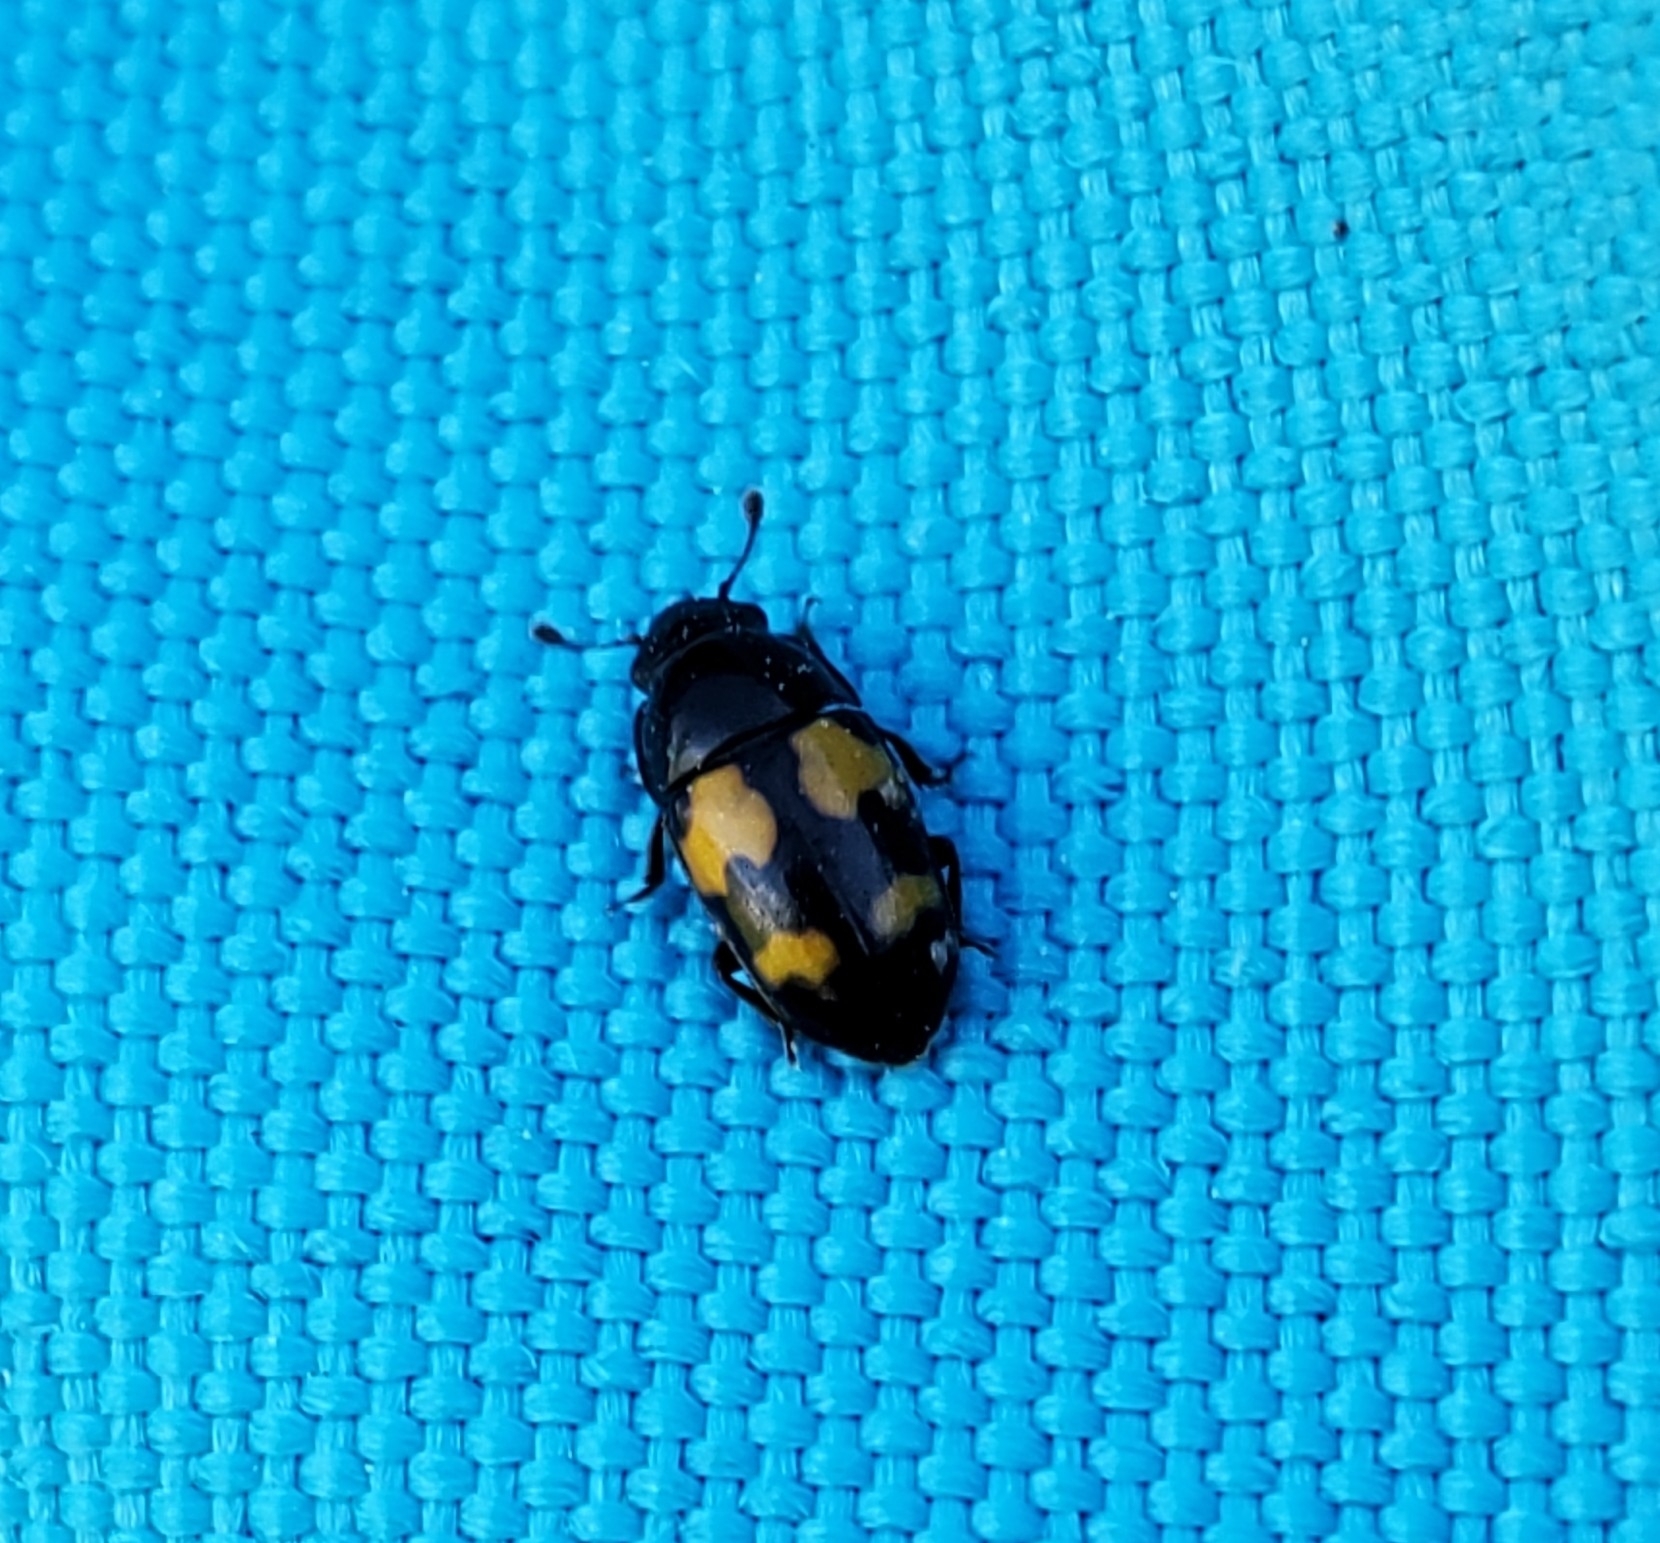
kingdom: Animalia
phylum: Arthropoda
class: Insecta
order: Coleoptera
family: Nitidulidae
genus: Glischrochilus
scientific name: Glischrochilus fasciatus
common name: Picnic beetle
